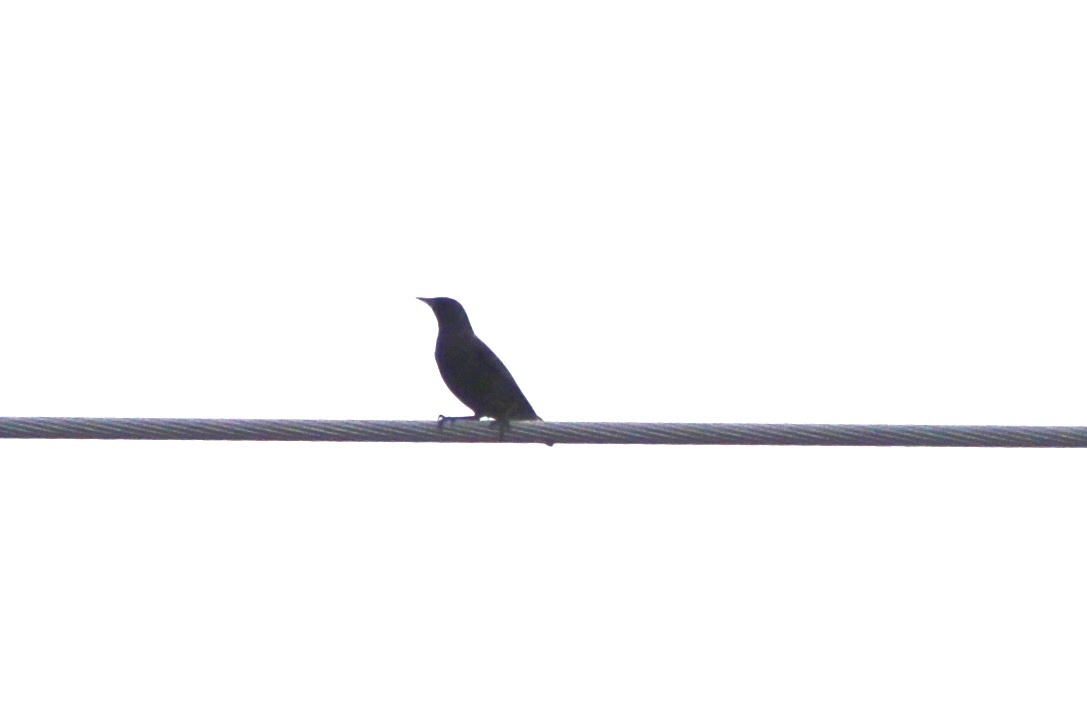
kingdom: Animalia
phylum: Chordata
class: Aves
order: Passeriformes
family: Sturnidae
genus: Sturnus
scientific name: Sturnus vulgaris
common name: Common starling
